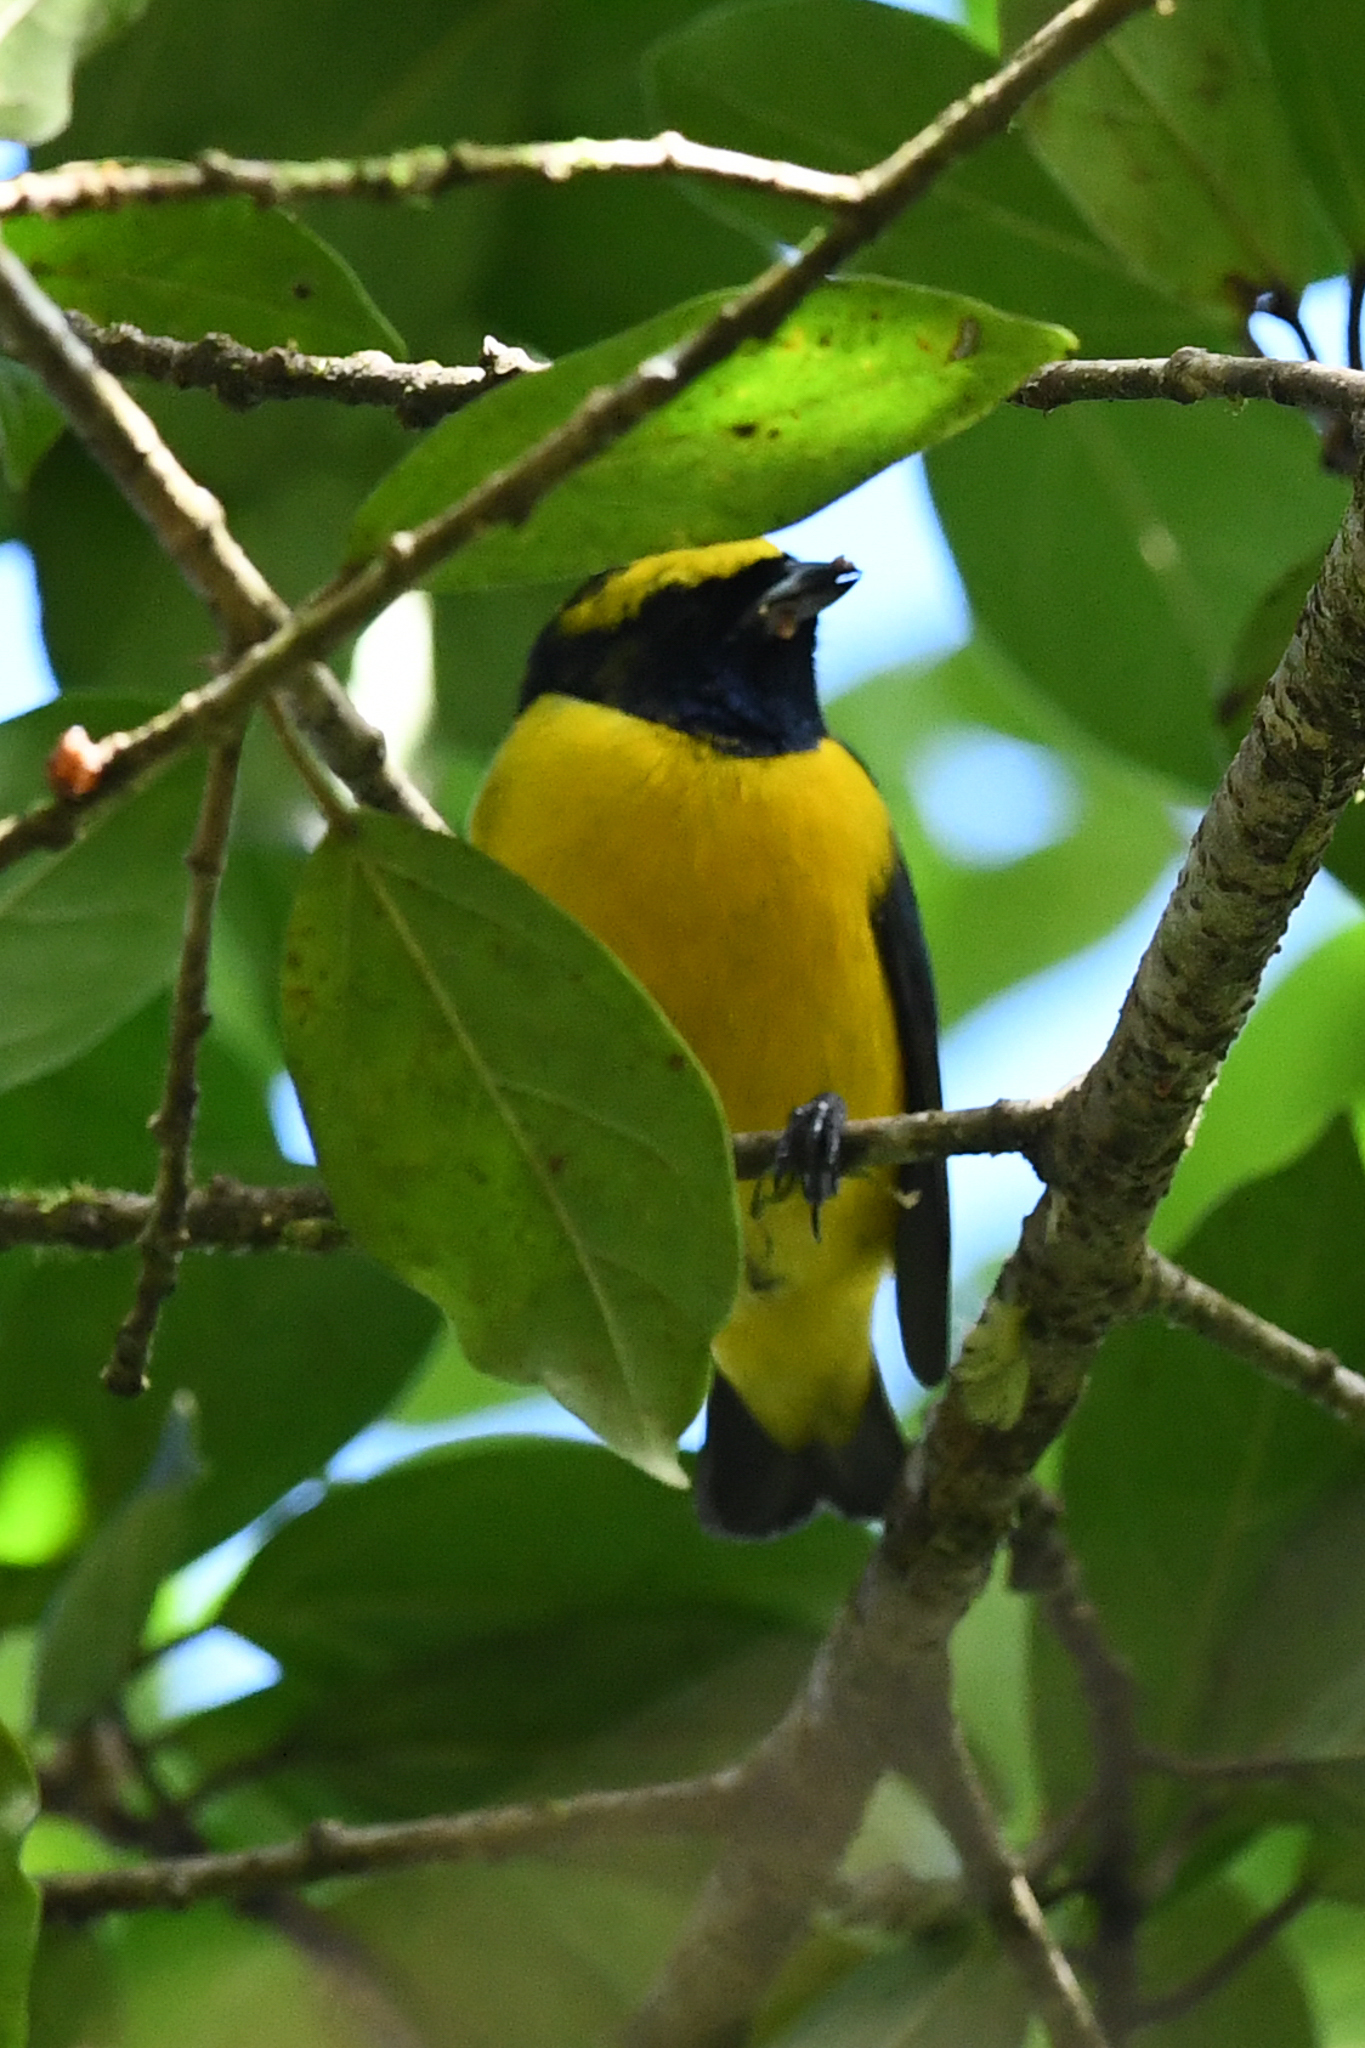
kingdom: Animalia
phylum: Chordata
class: Aves
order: Passeriformes
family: Fringillidae
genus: Euphonia
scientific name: Euphonia luteicapilla
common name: Yellow-crowned euphonia
